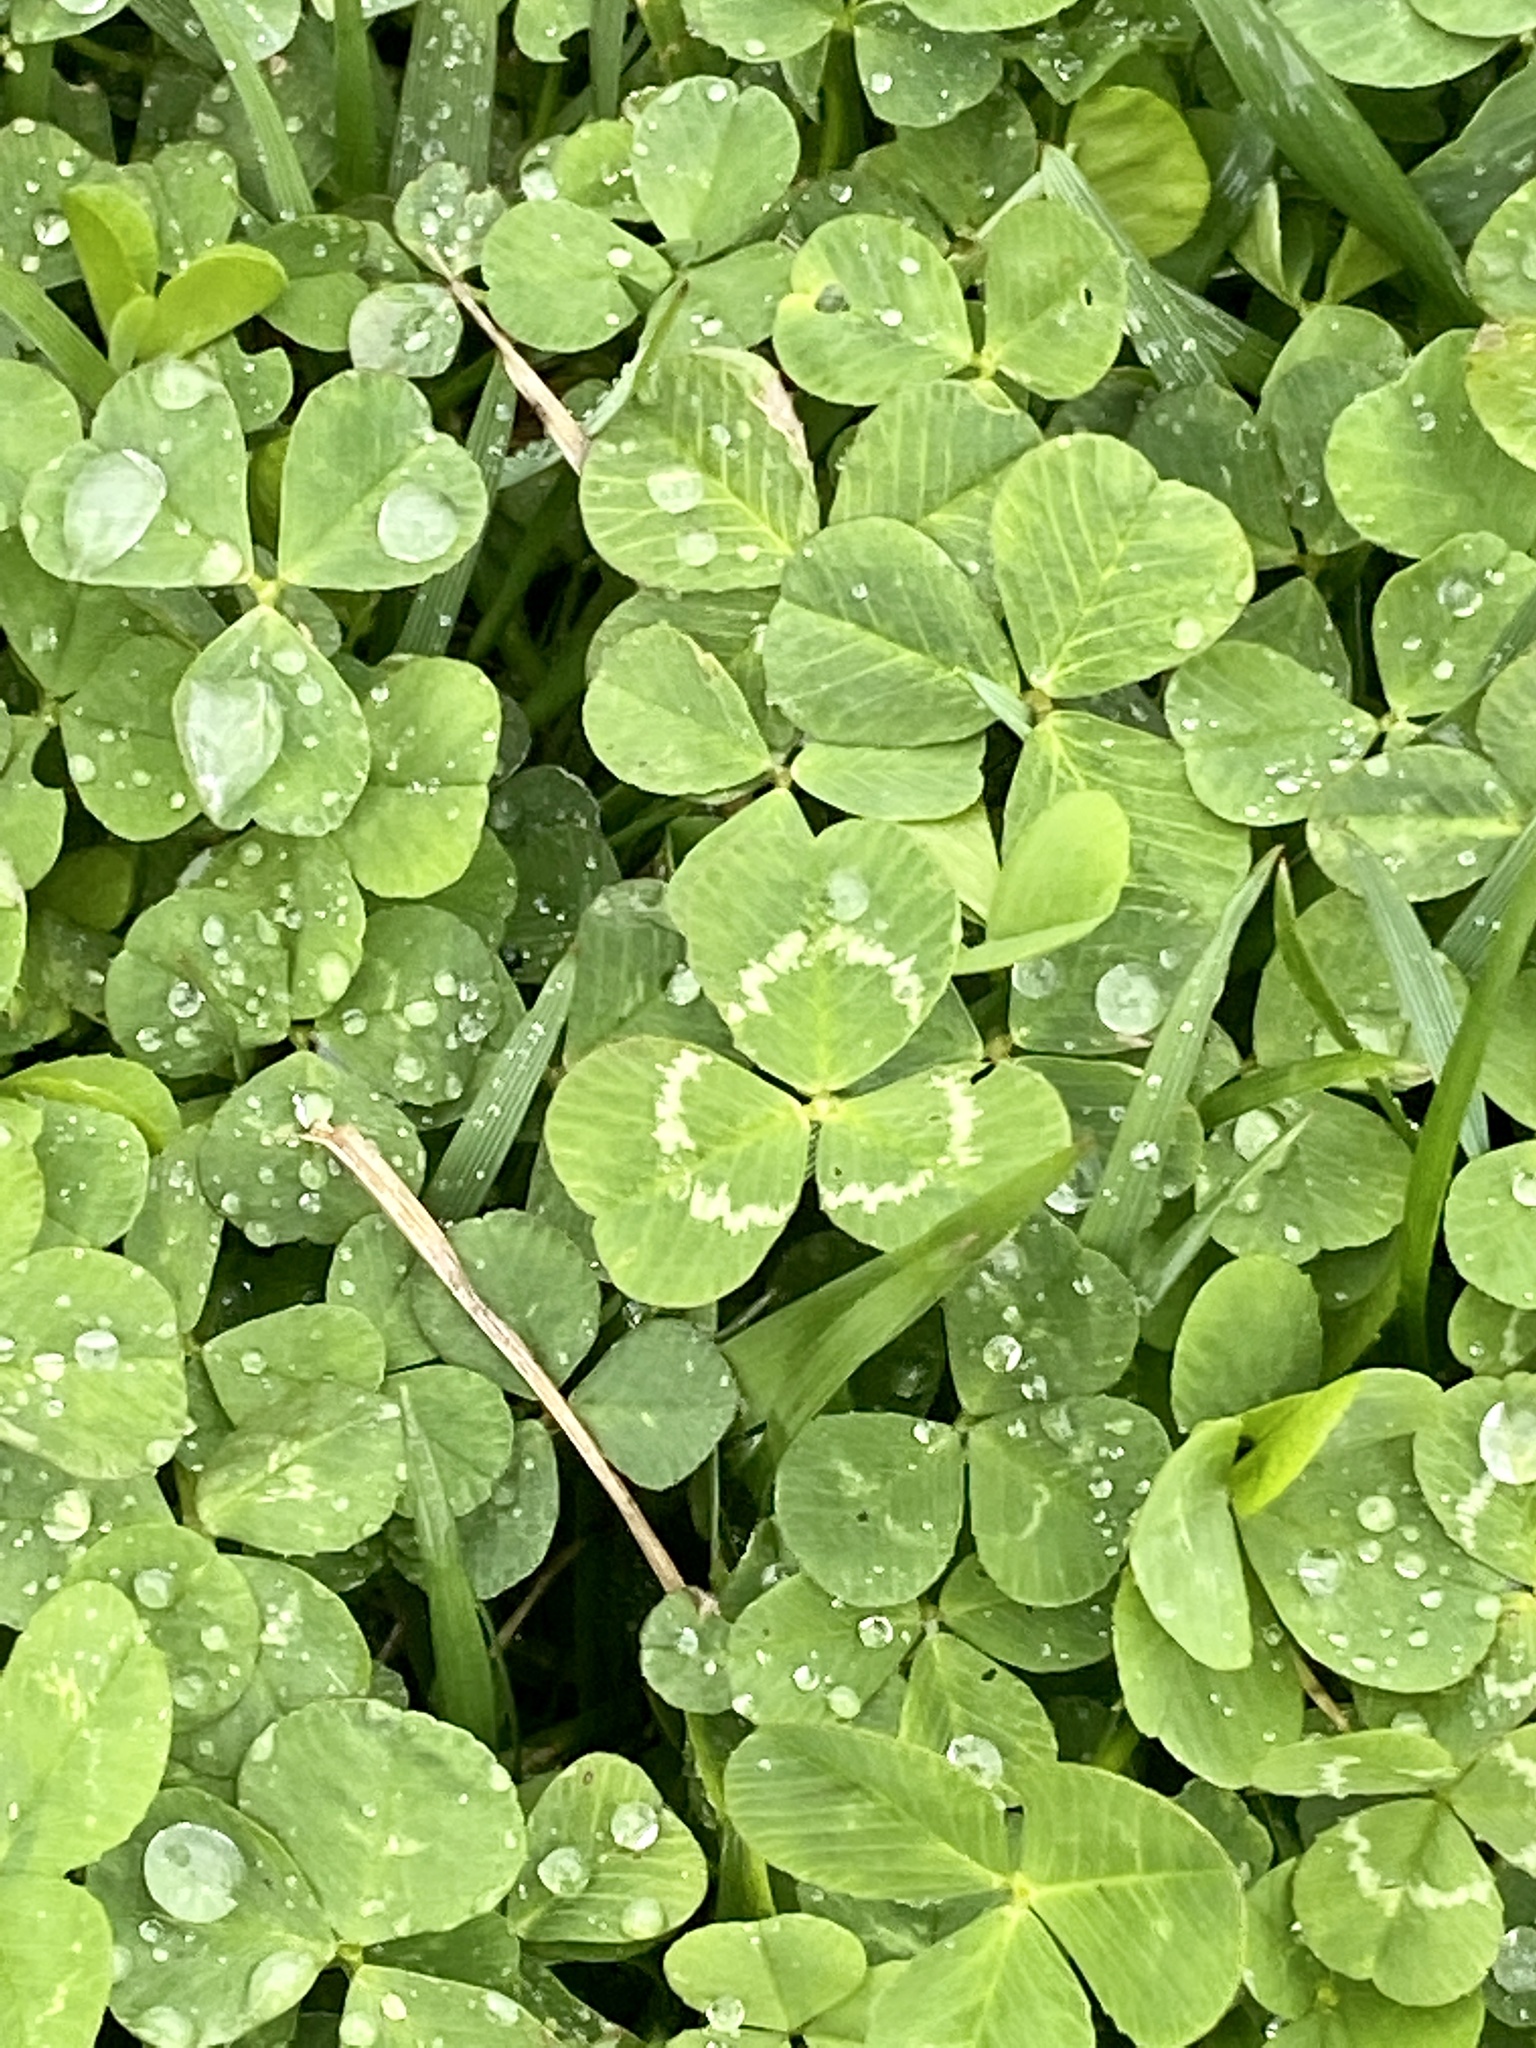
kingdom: Plantae
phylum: Tracheophyta
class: Magnoliopsida
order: Fabales
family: Fabaceae
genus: Trifolium
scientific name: Trifolium repens
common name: White clover
